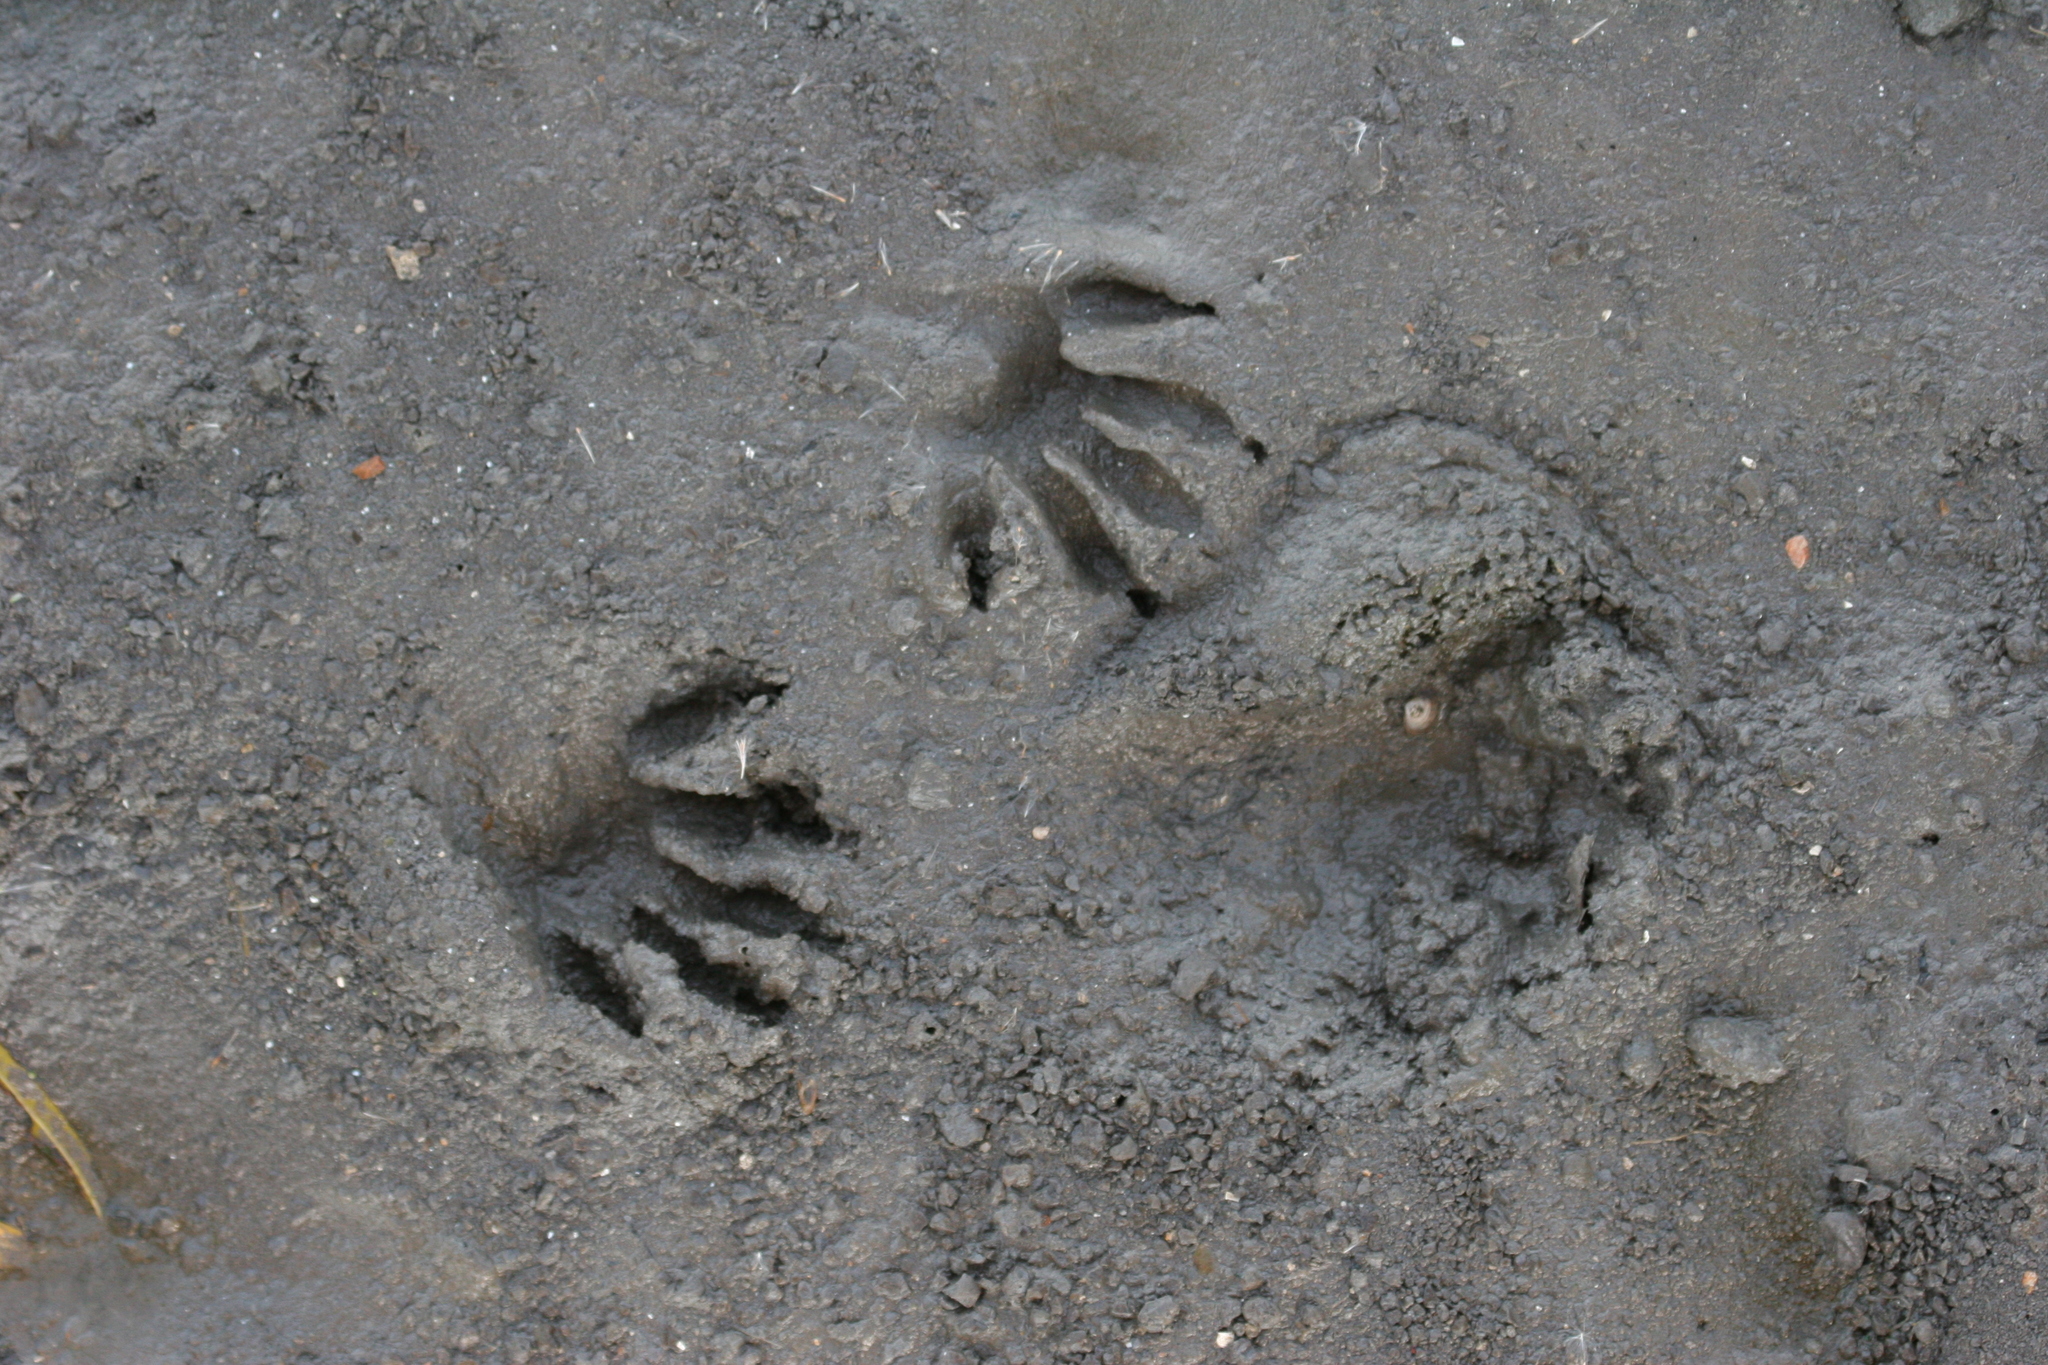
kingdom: Animalia
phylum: Chordata
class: Mammalia
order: Carnivora
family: Procyonidae
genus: Procyon
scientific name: Procyon lotor
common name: Raccoon
